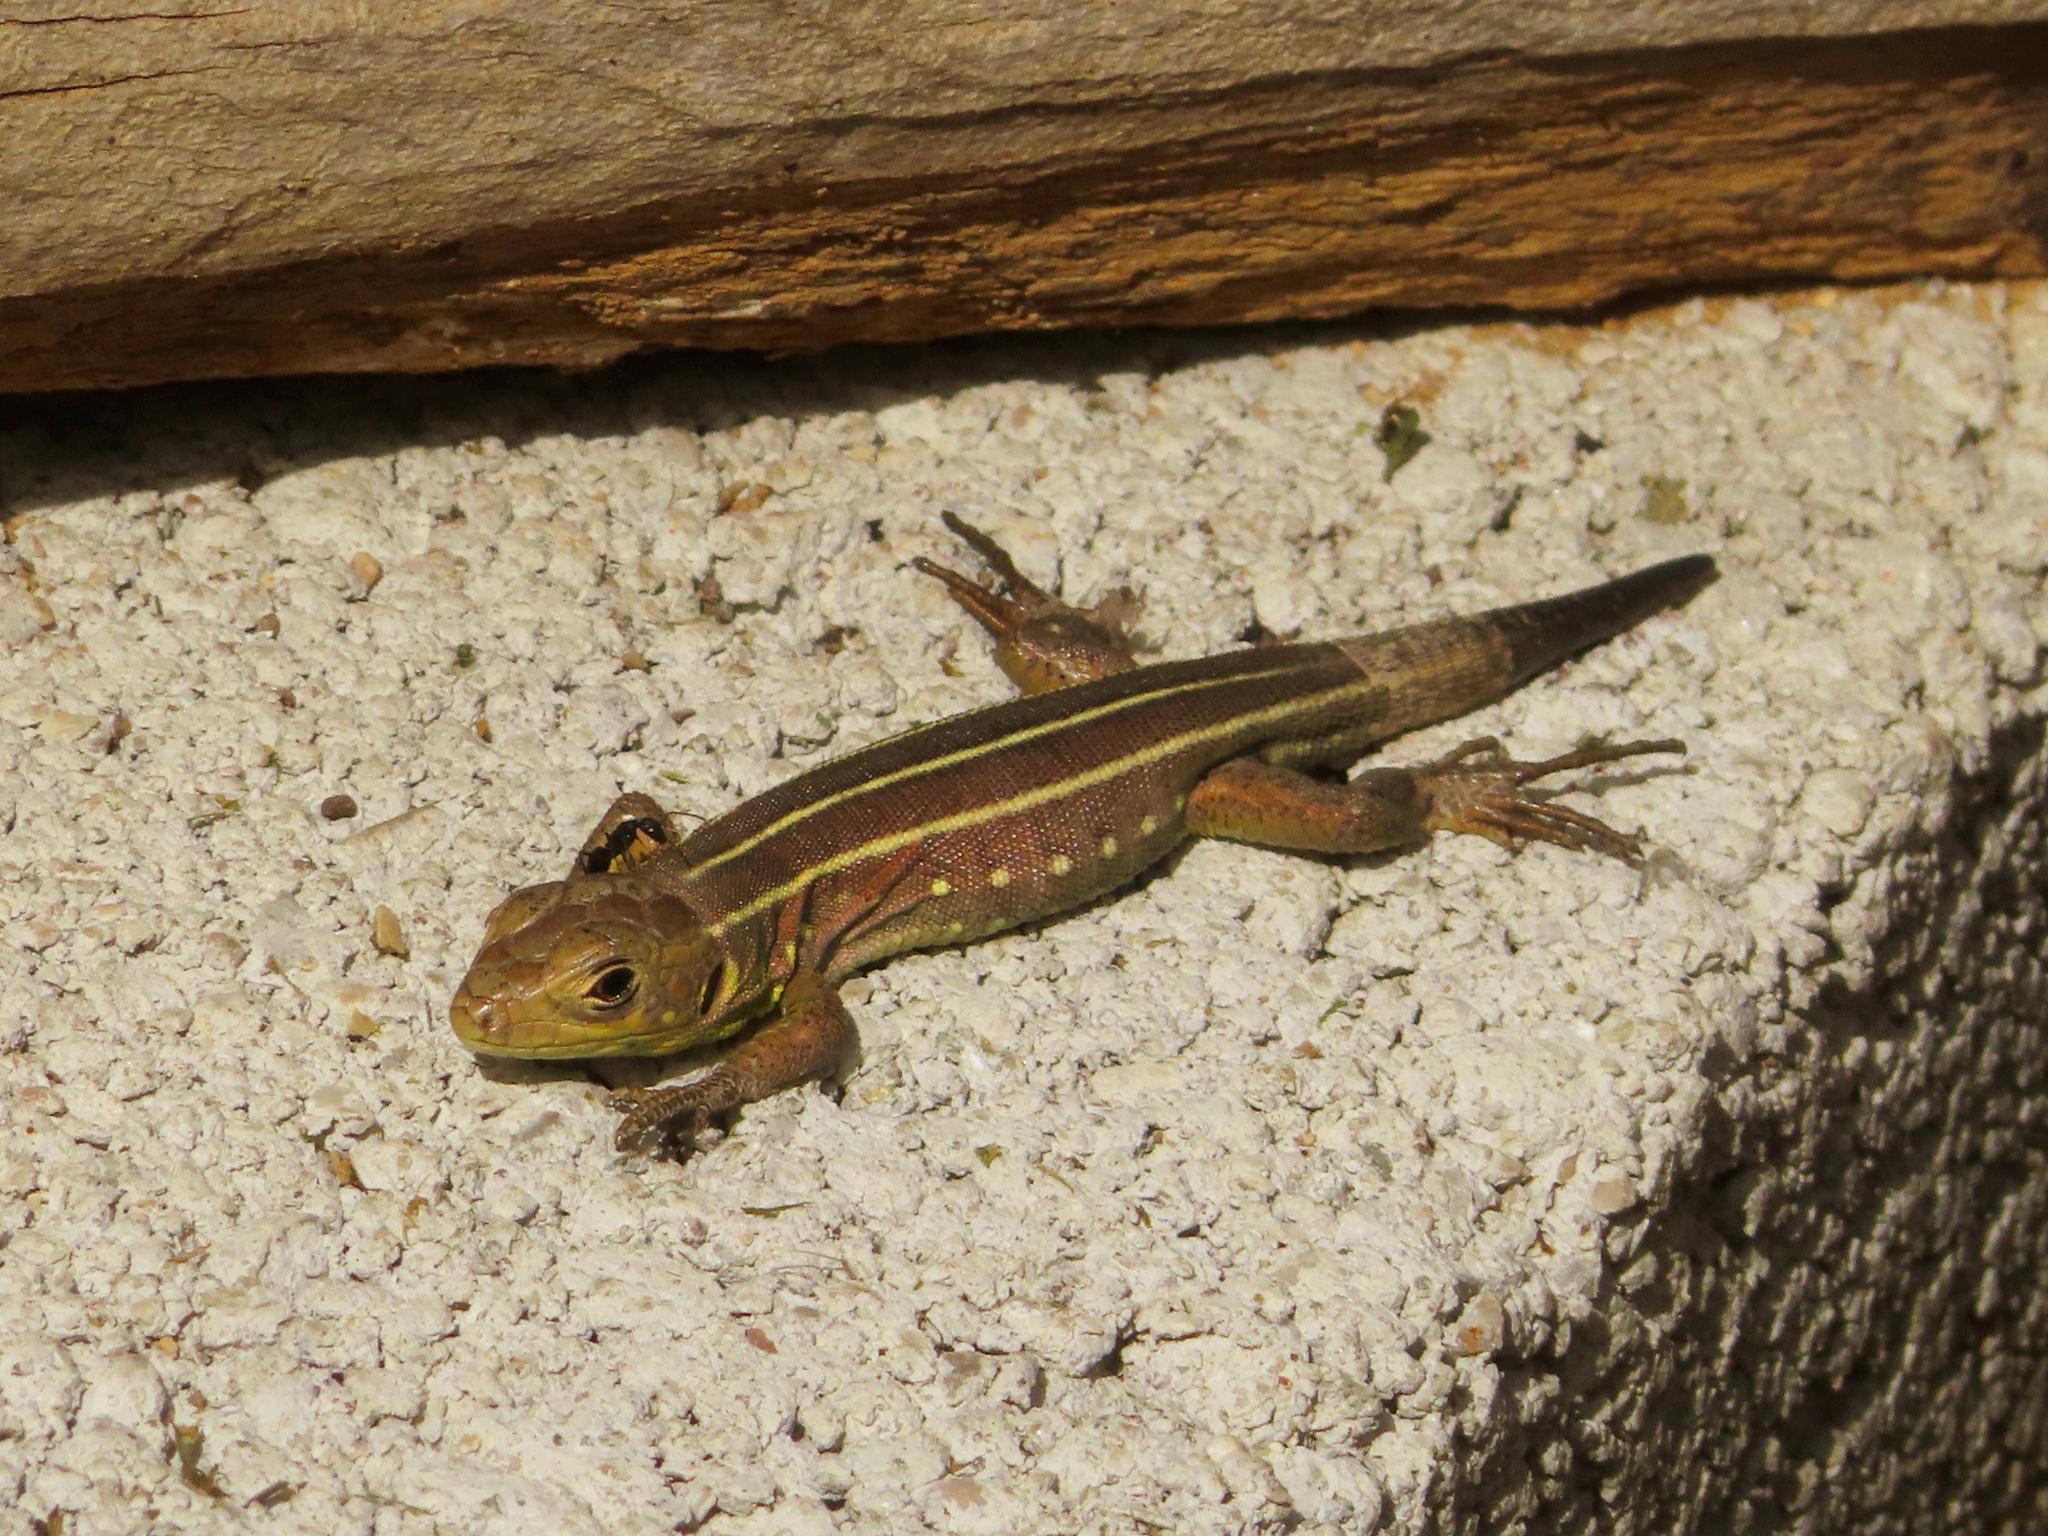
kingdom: Animalia
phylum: Chordata
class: Squamata
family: Lacertidae
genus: Lacerta
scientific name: Lacerta trilineata
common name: Balkan green lizard
